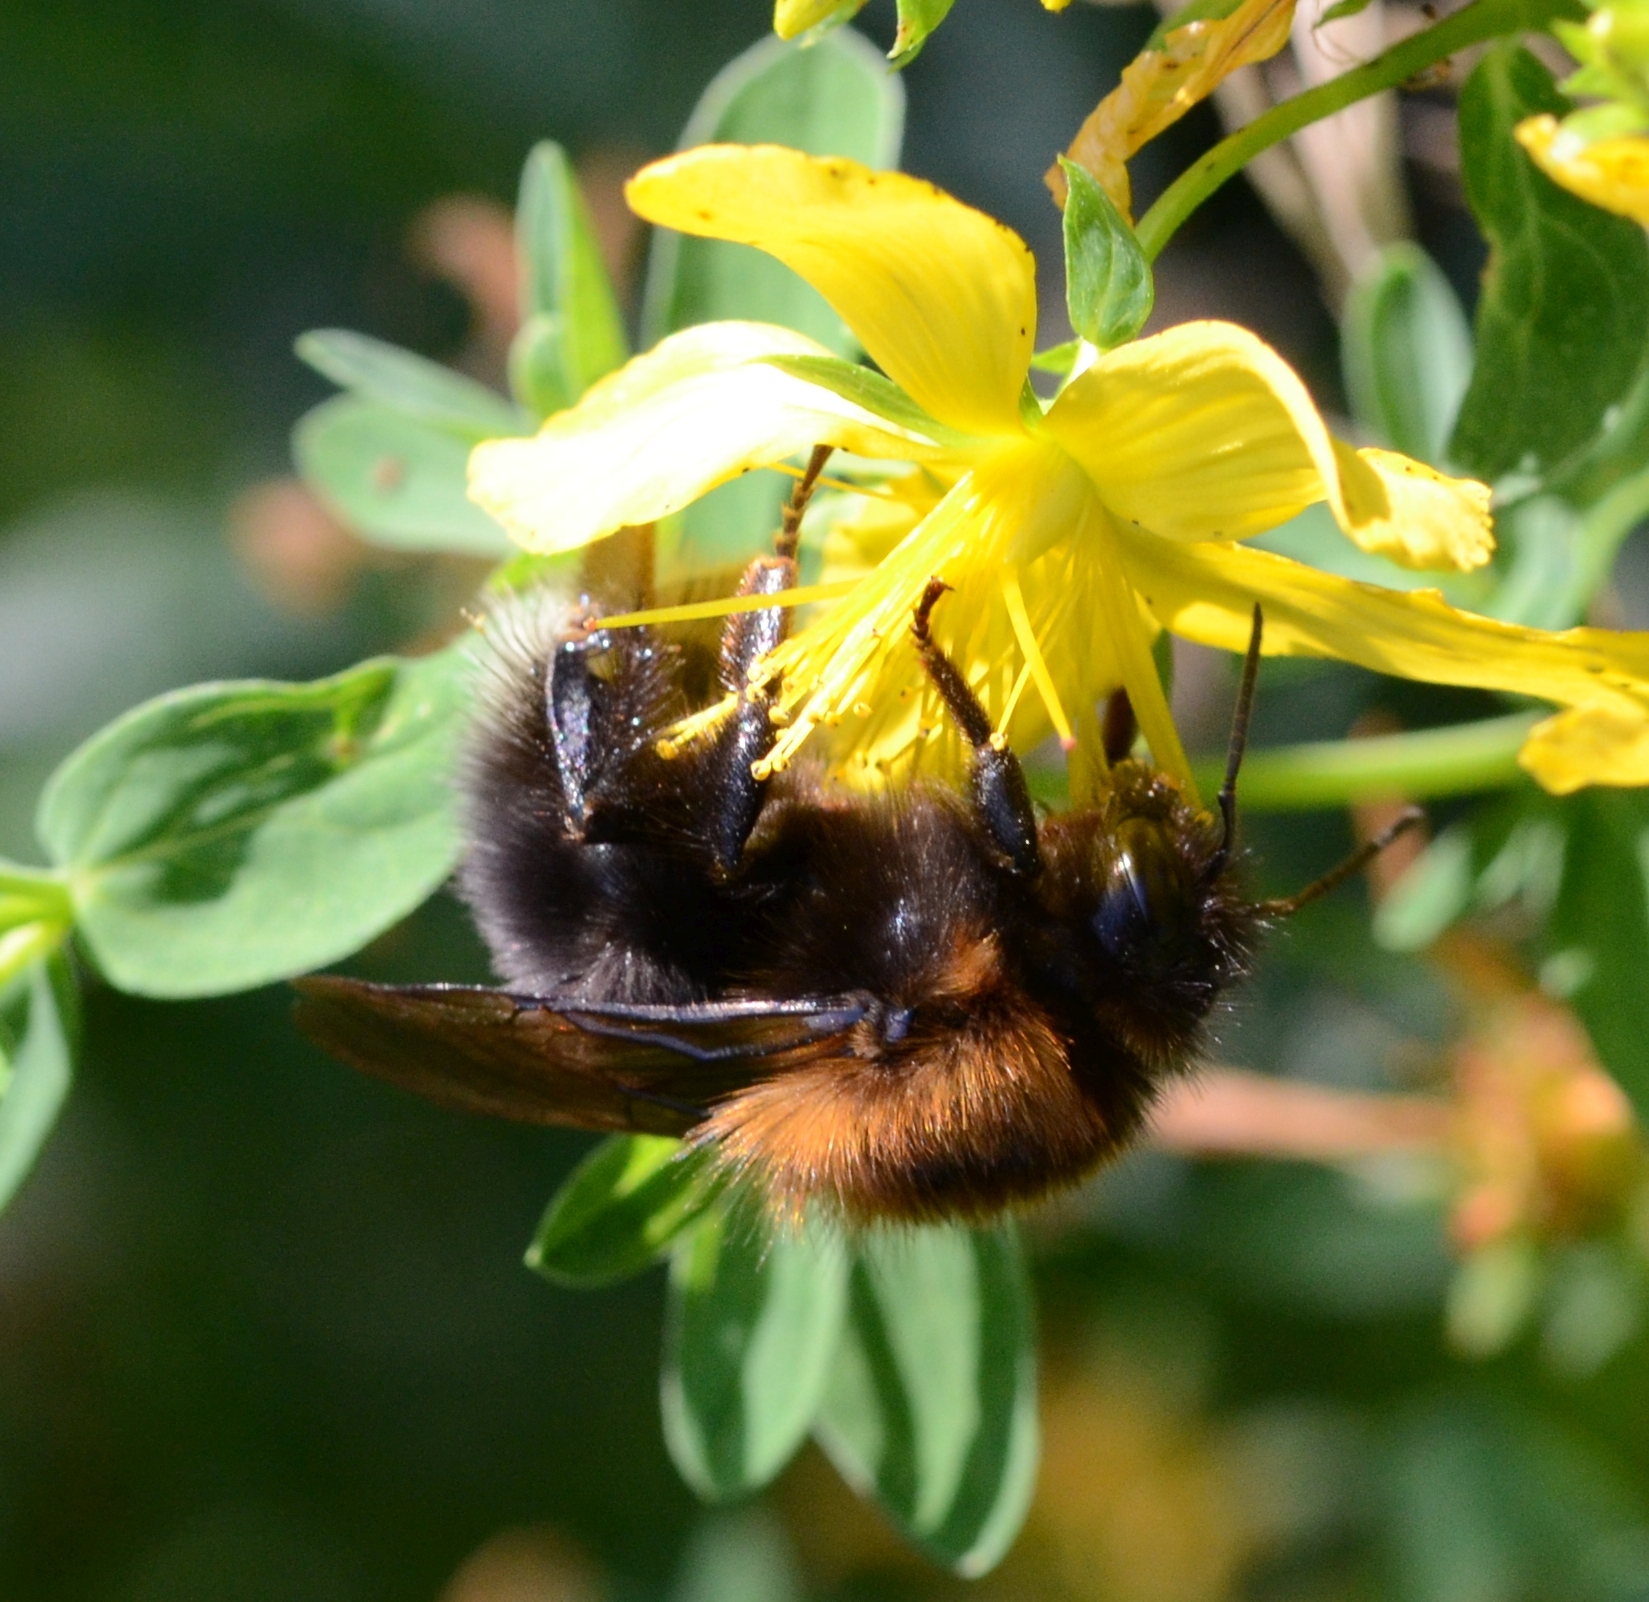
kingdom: Animalia
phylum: Arthropoda
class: Insecta
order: Hymenoptera
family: Apidae
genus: Bombus
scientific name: Bombus hypnorum
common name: New garden bumblebee
